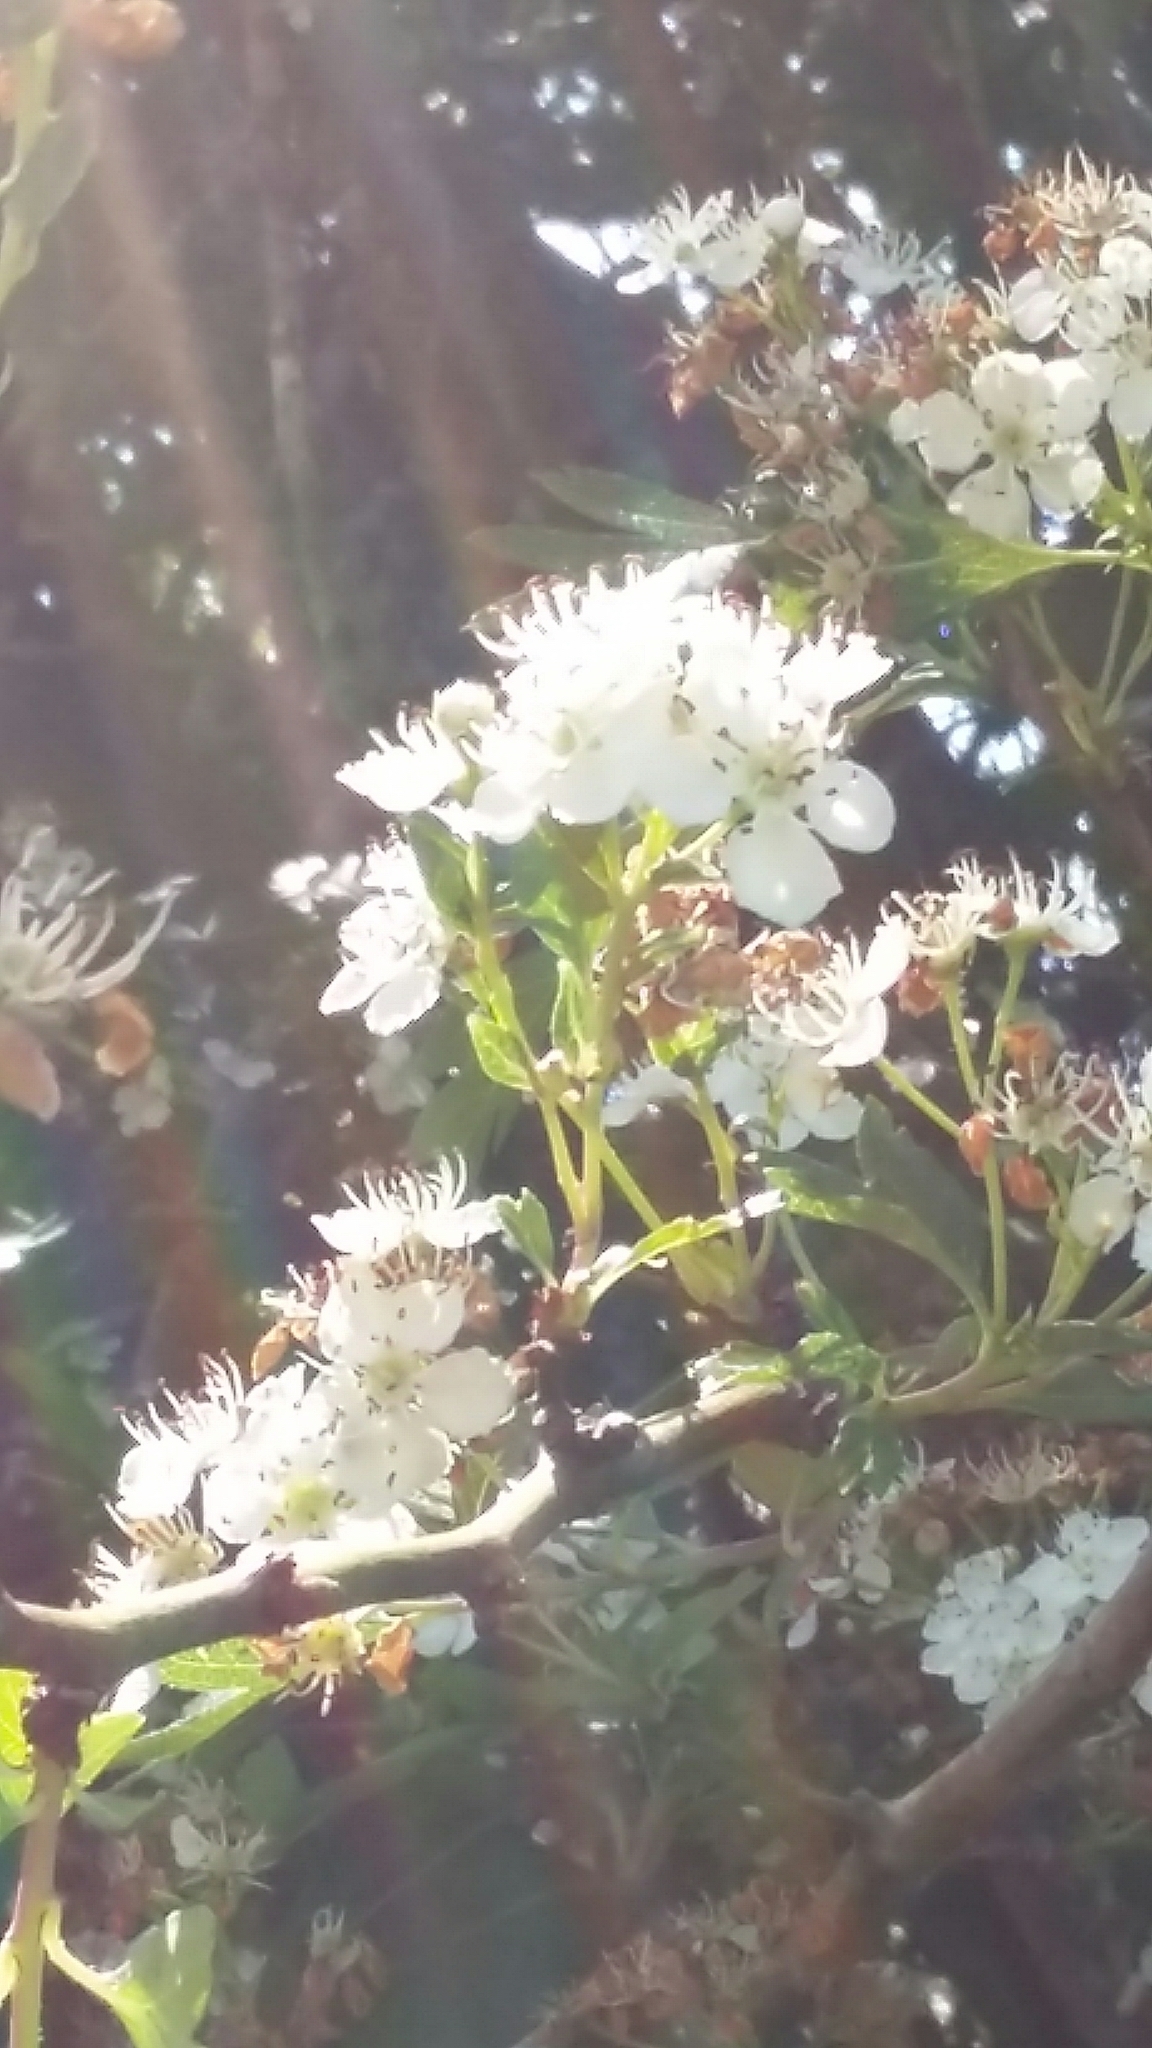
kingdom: Plantae
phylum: Tracheophyta
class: Magnoliopsida
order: Rosales
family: Rosaceae
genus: Crataegus
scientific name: Crataegus monogyna
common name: Hawthorn
